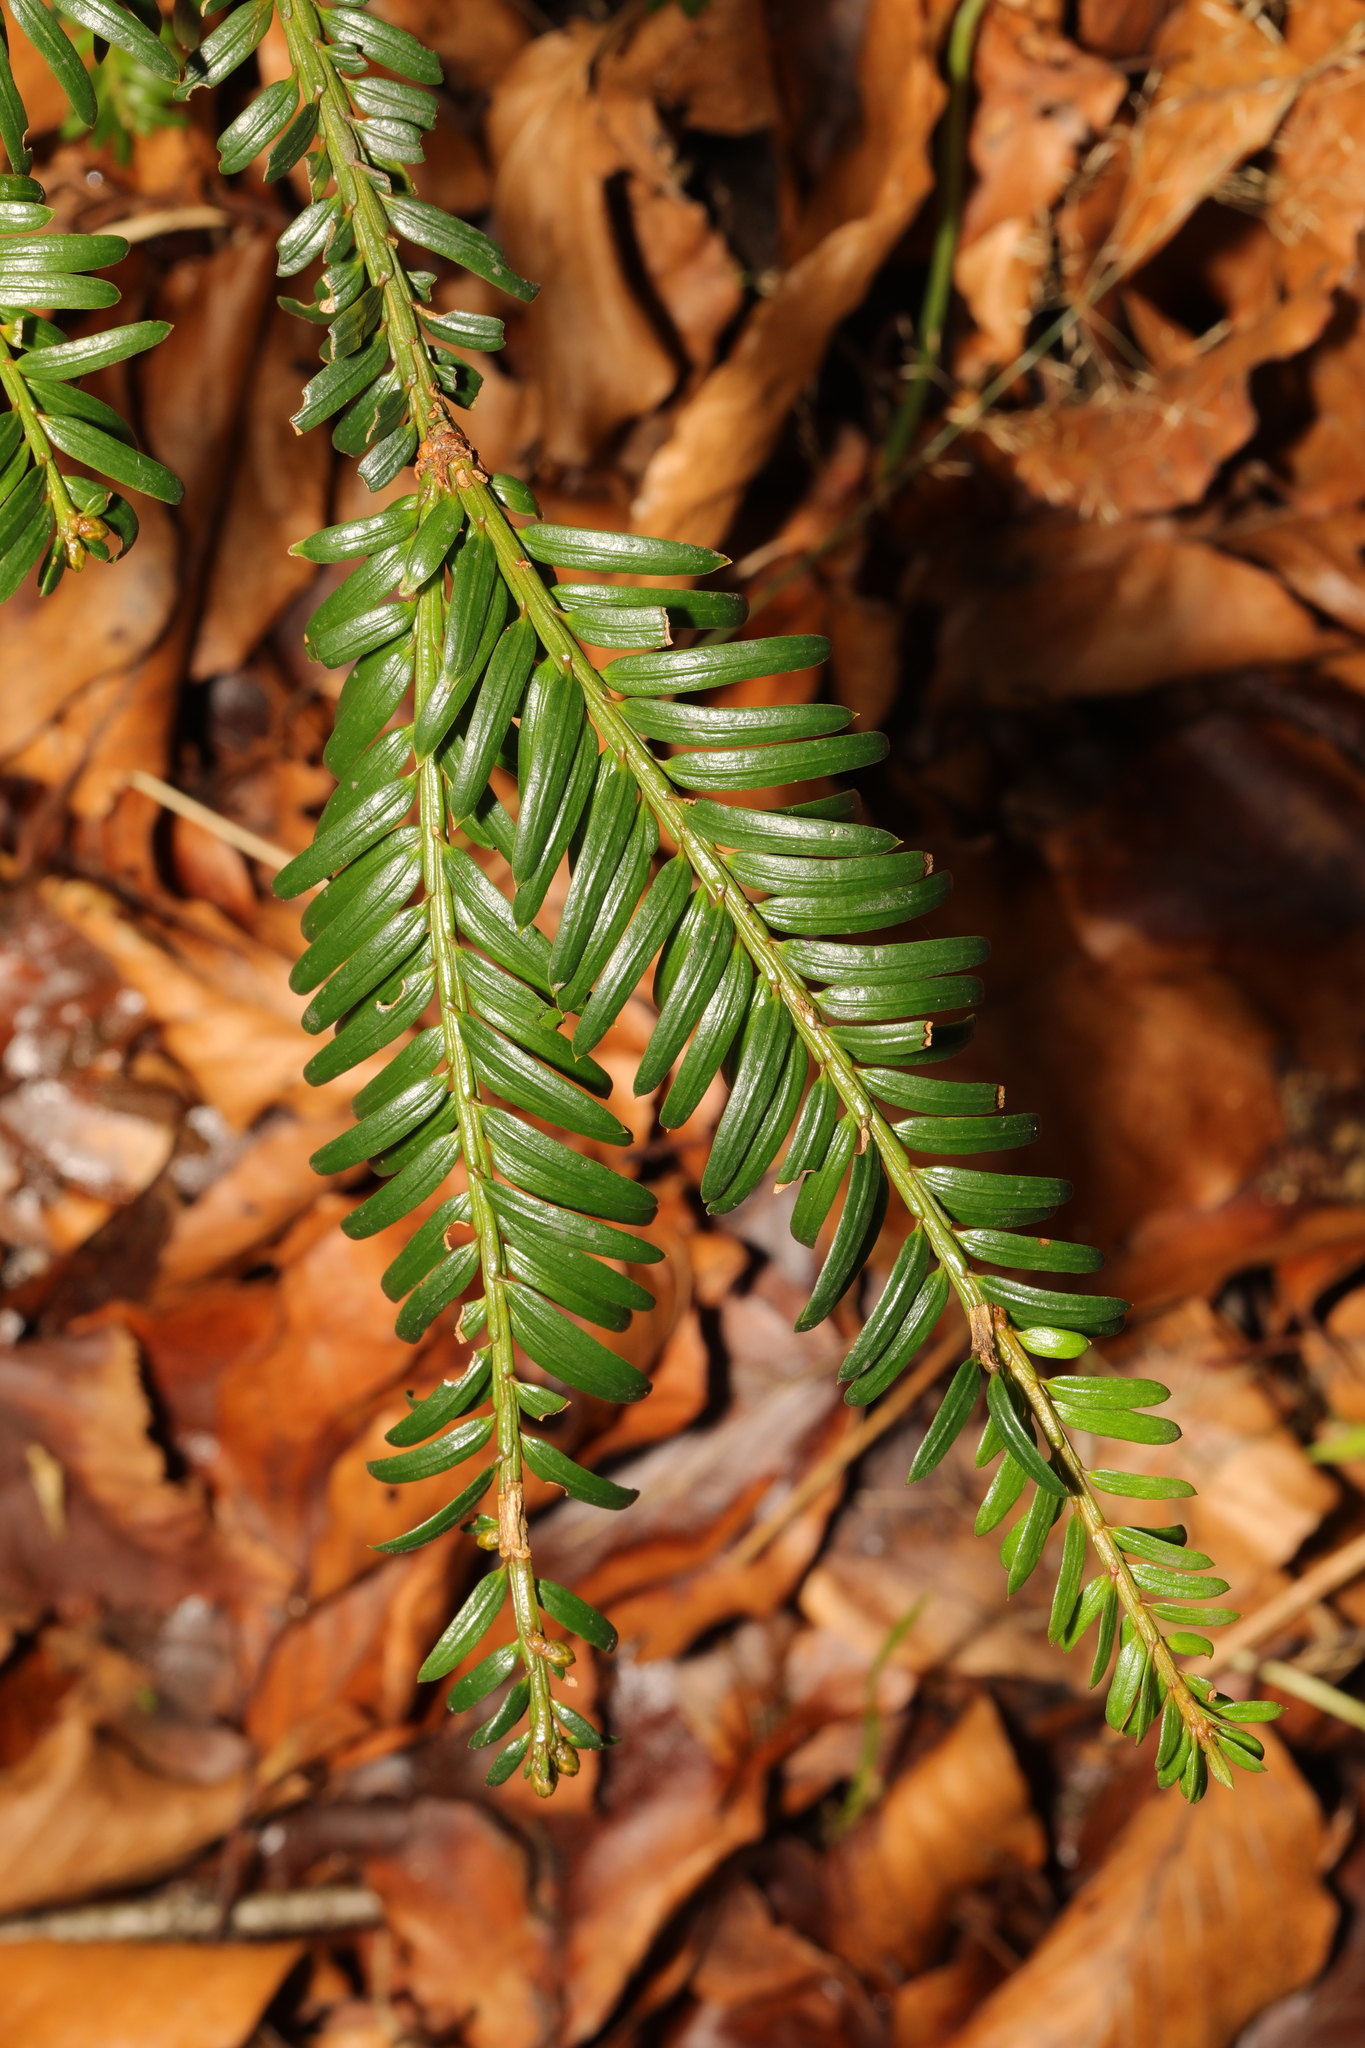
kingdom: Plantae
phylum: Tracheophyta
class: Pinopsida
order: Pinales
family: Taxaceae
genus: Taxus
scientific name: Taxus baccata
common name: Yew
